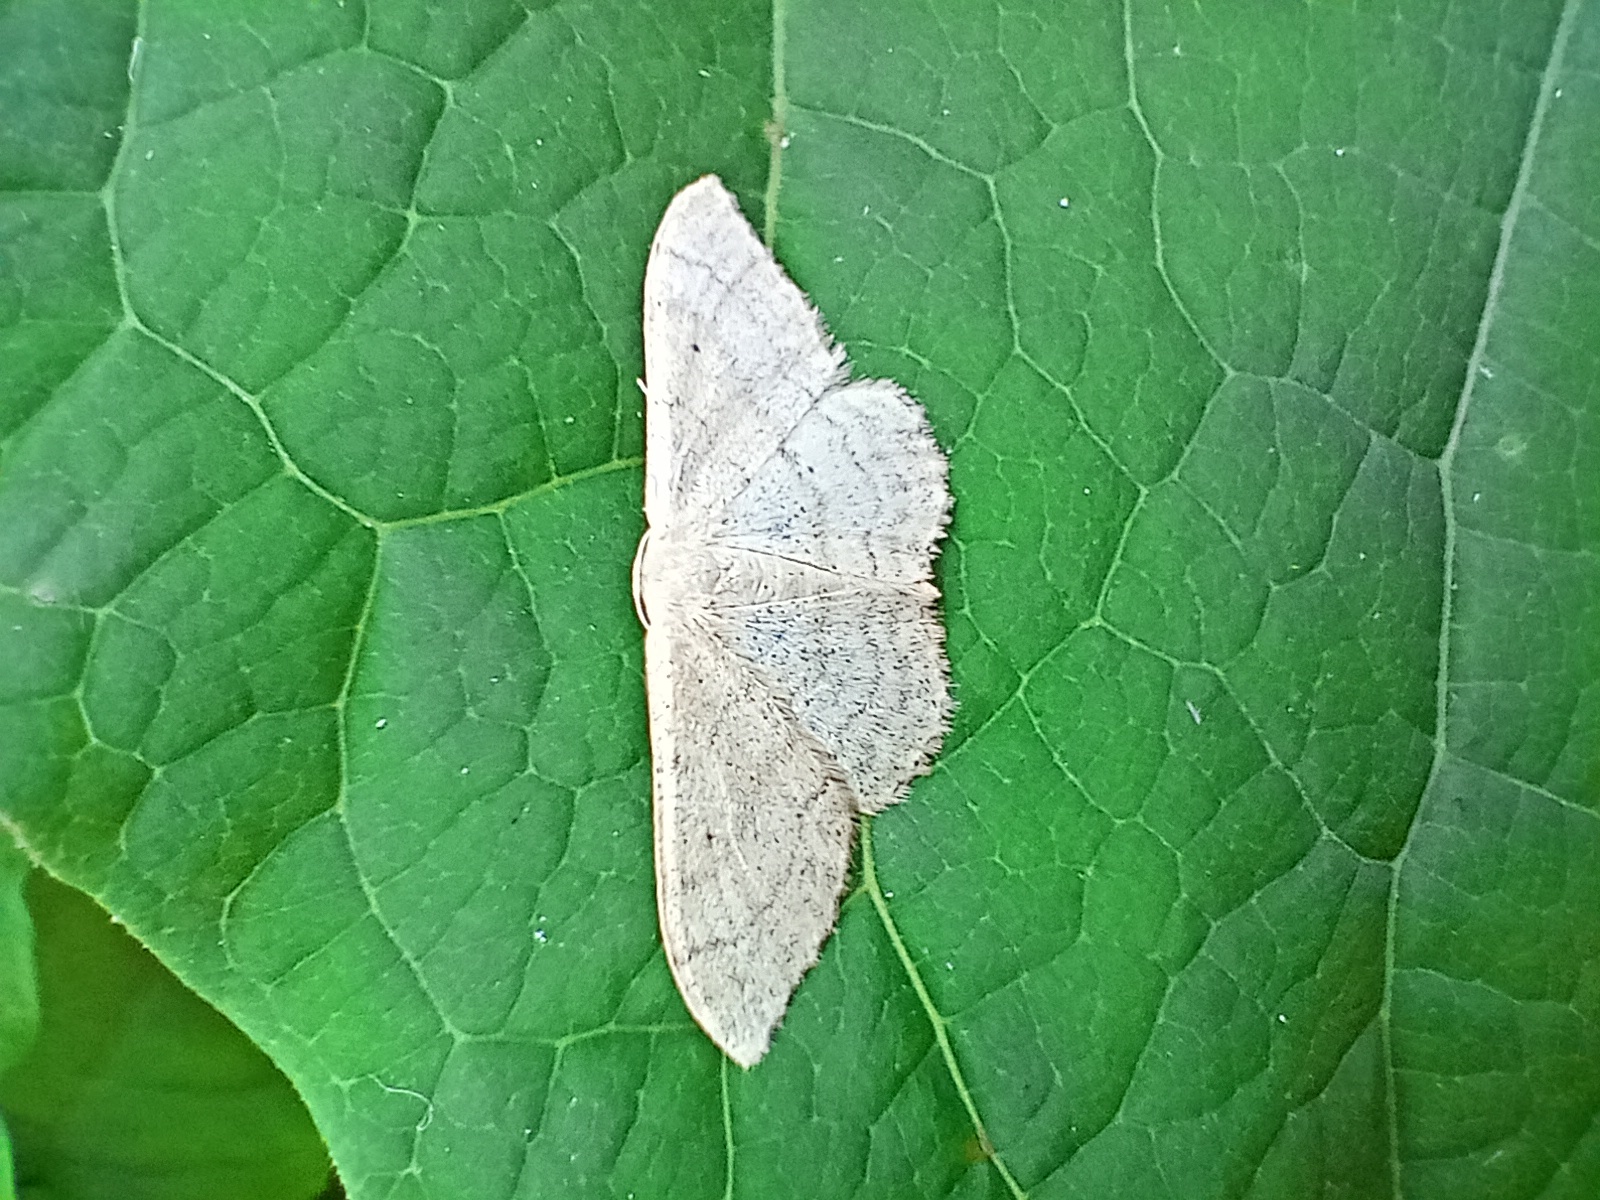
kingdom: Animalia
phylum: Arthropoda
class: Insecta
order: Lepidoptera
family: Geometridae
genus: Idaea
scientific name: Idaea straminata
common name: Plain wave
